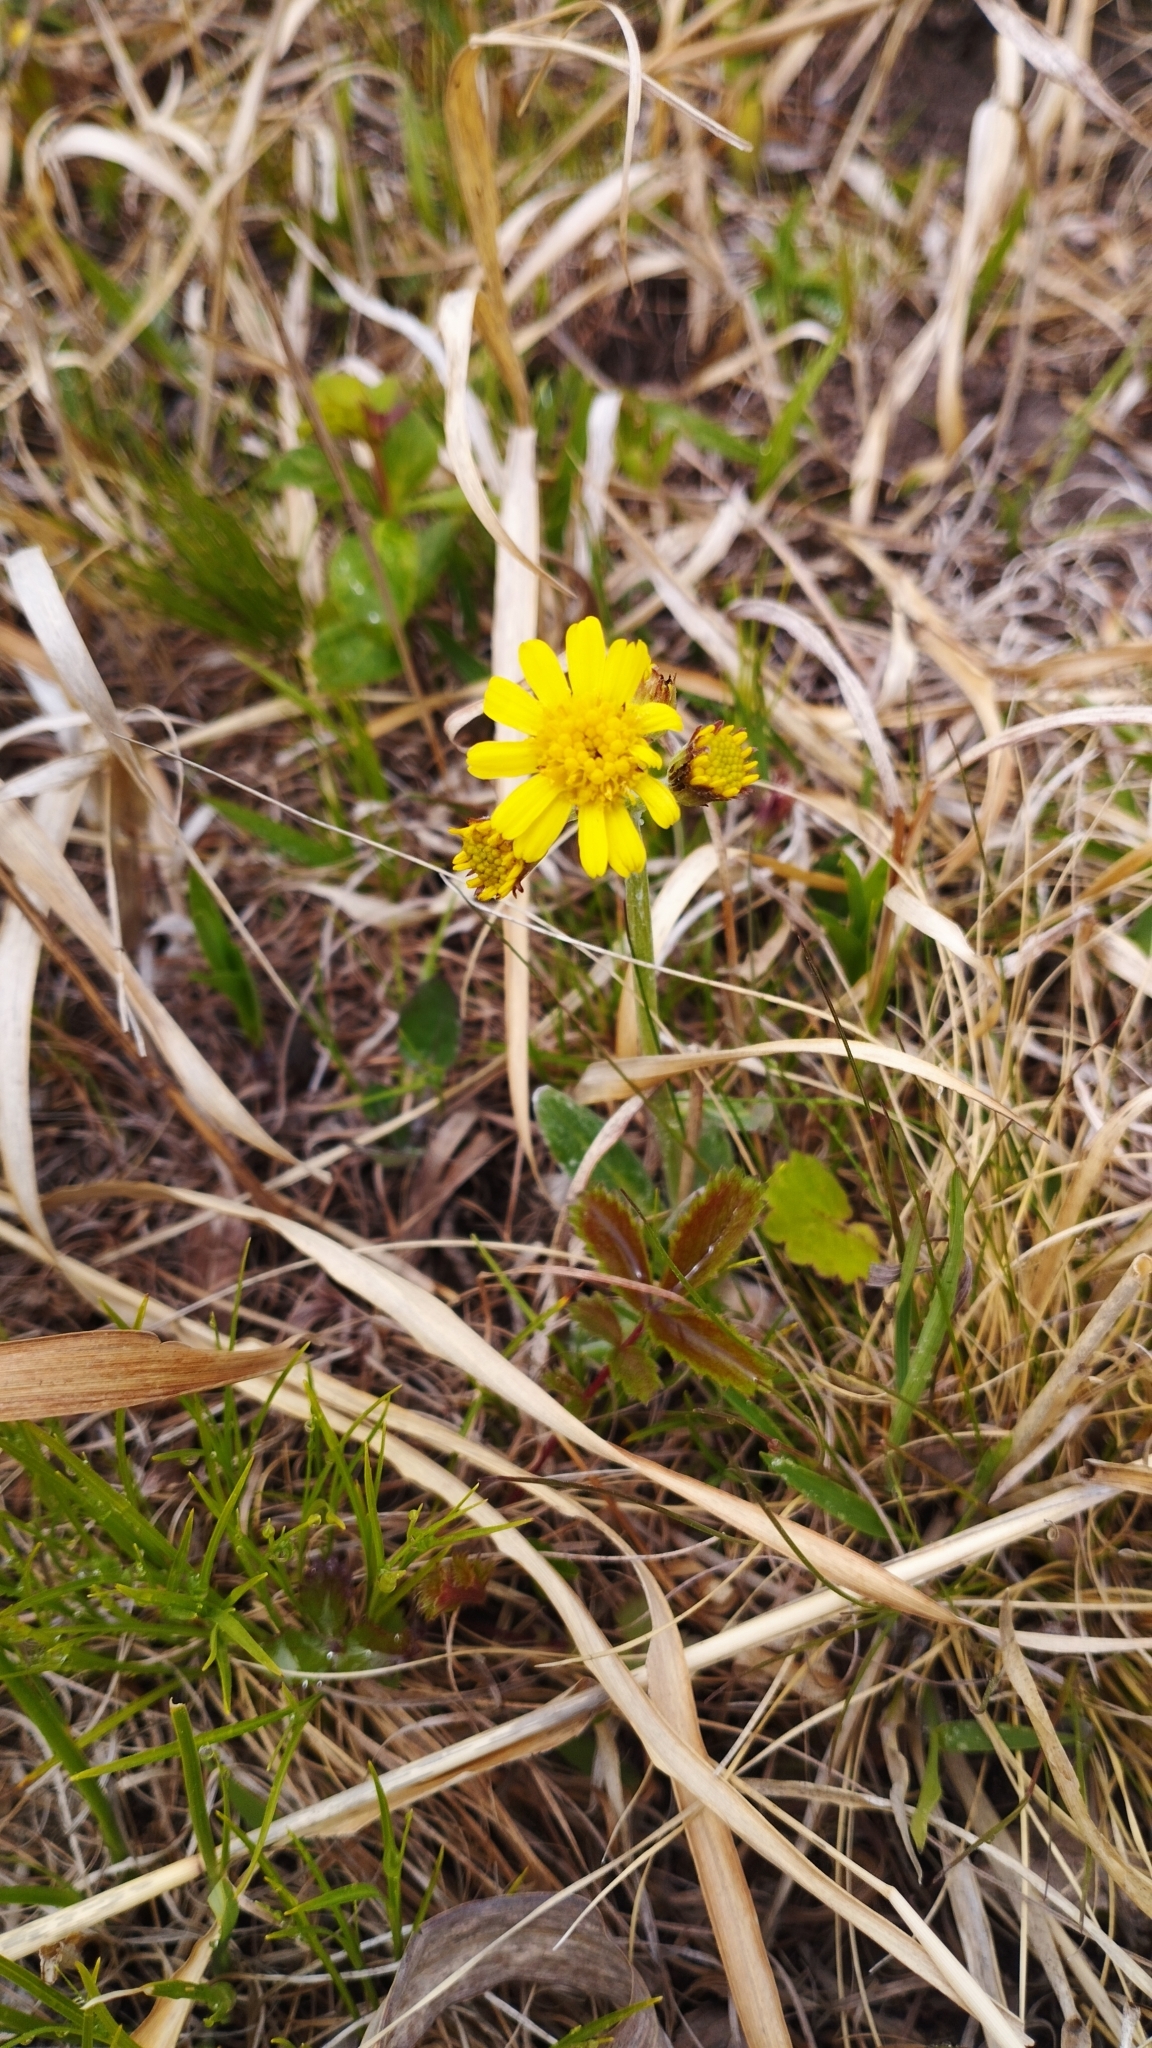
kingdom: Plantae
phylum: Tracheophyta
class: Magnoliopsida
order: Asterales
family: Asteraceae
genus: Tephroseris
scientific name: Tephroseris kirilowii
